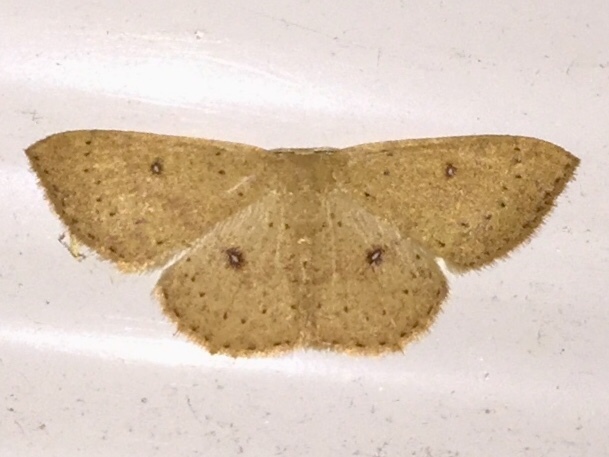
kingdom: Animalia
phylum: Arthropoda
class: Insecta
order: Lepidoptera
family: Geometridae
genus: Cyclophora
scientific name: Cyclophora packardi
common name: Packard's wave
